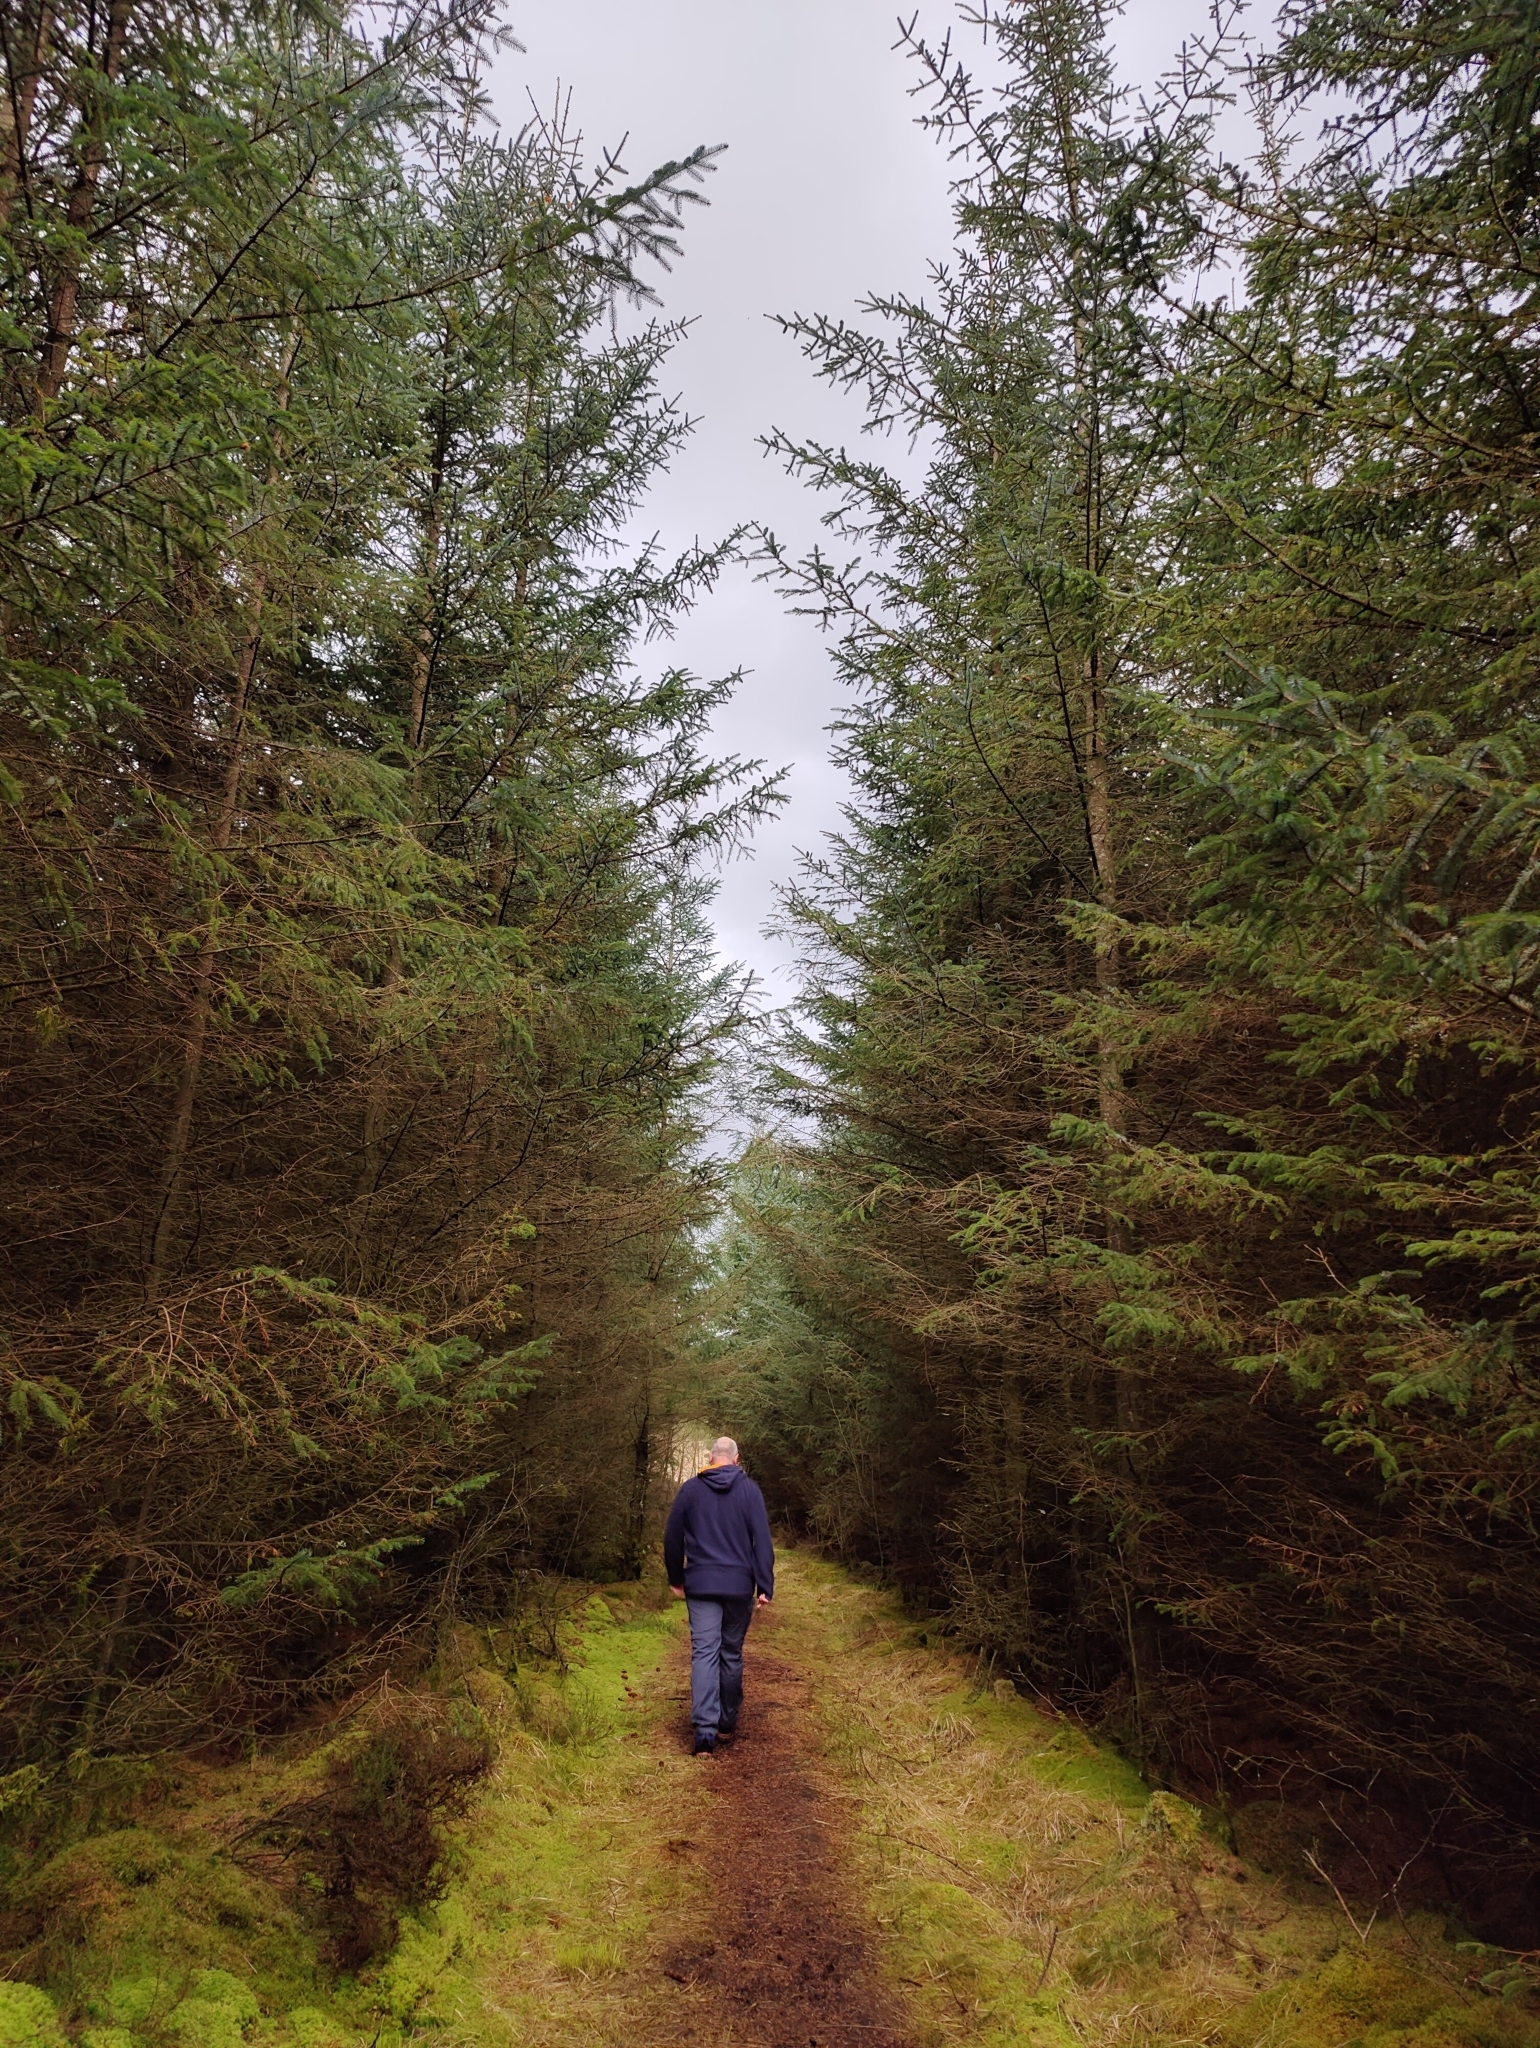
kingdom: Plantae
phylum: Tracheophyta
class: Pinopsida
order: Pinales
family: Pinaceae
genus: Picea
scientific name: Picea sitchensis
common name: Sitka spruce
